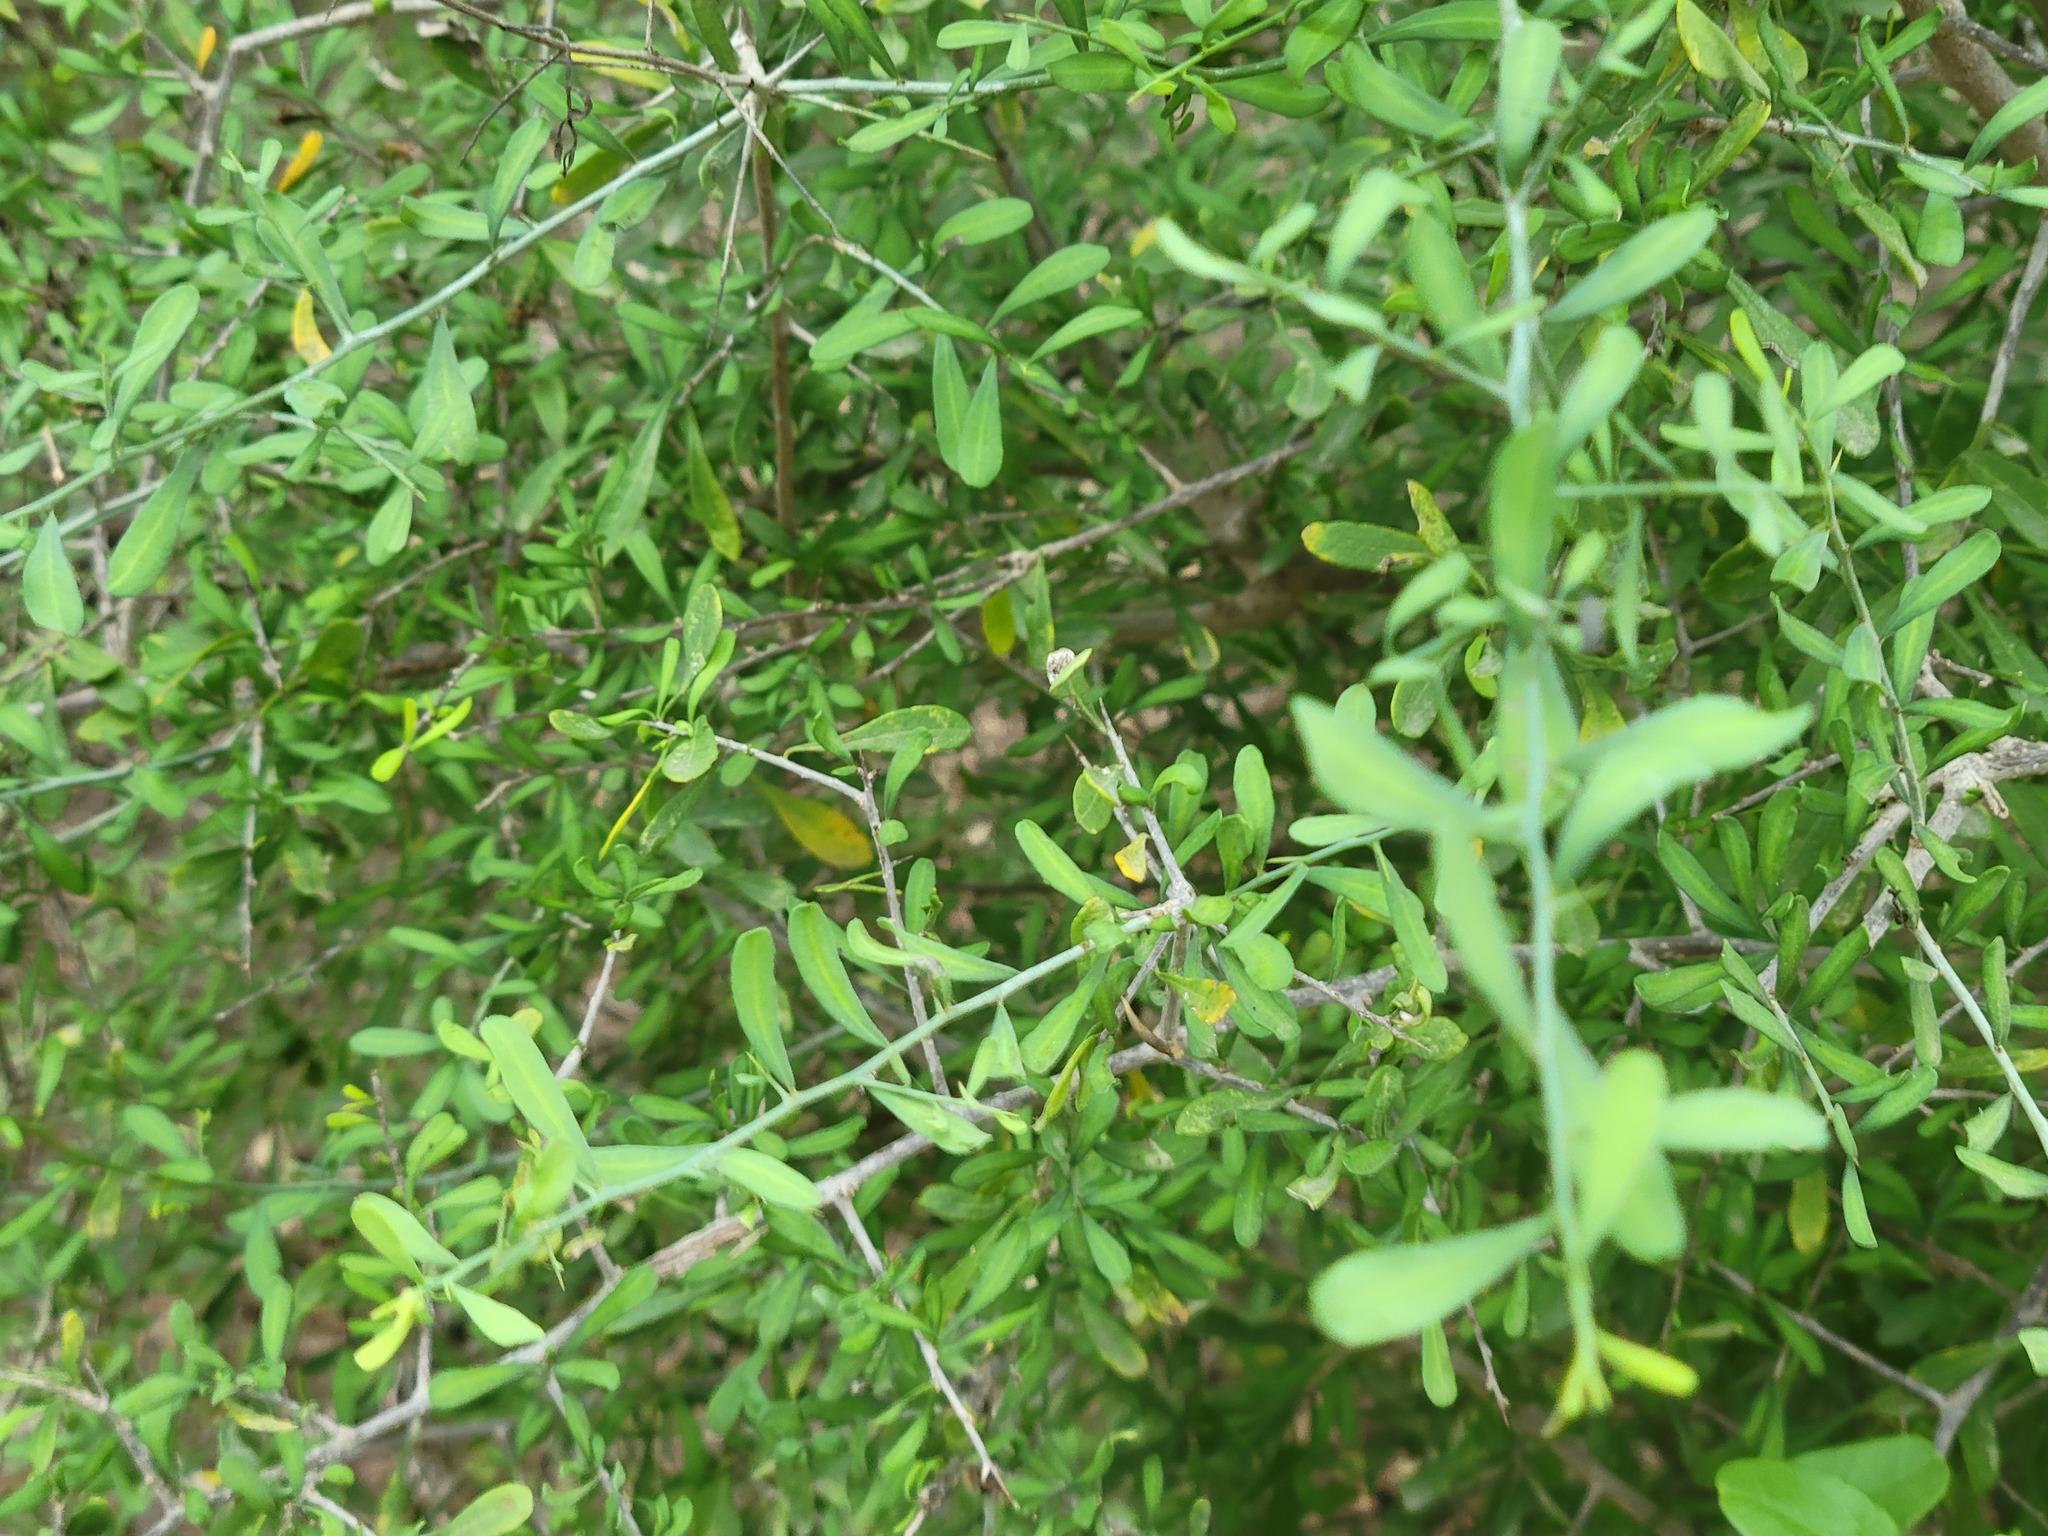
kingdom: Plantae
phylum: Tracheophyta
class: Magnoliopsida
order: Caryophyllales
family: Achatocarpaceae
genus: Phaulothamnus
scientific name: Phaulothamnus spinescens
